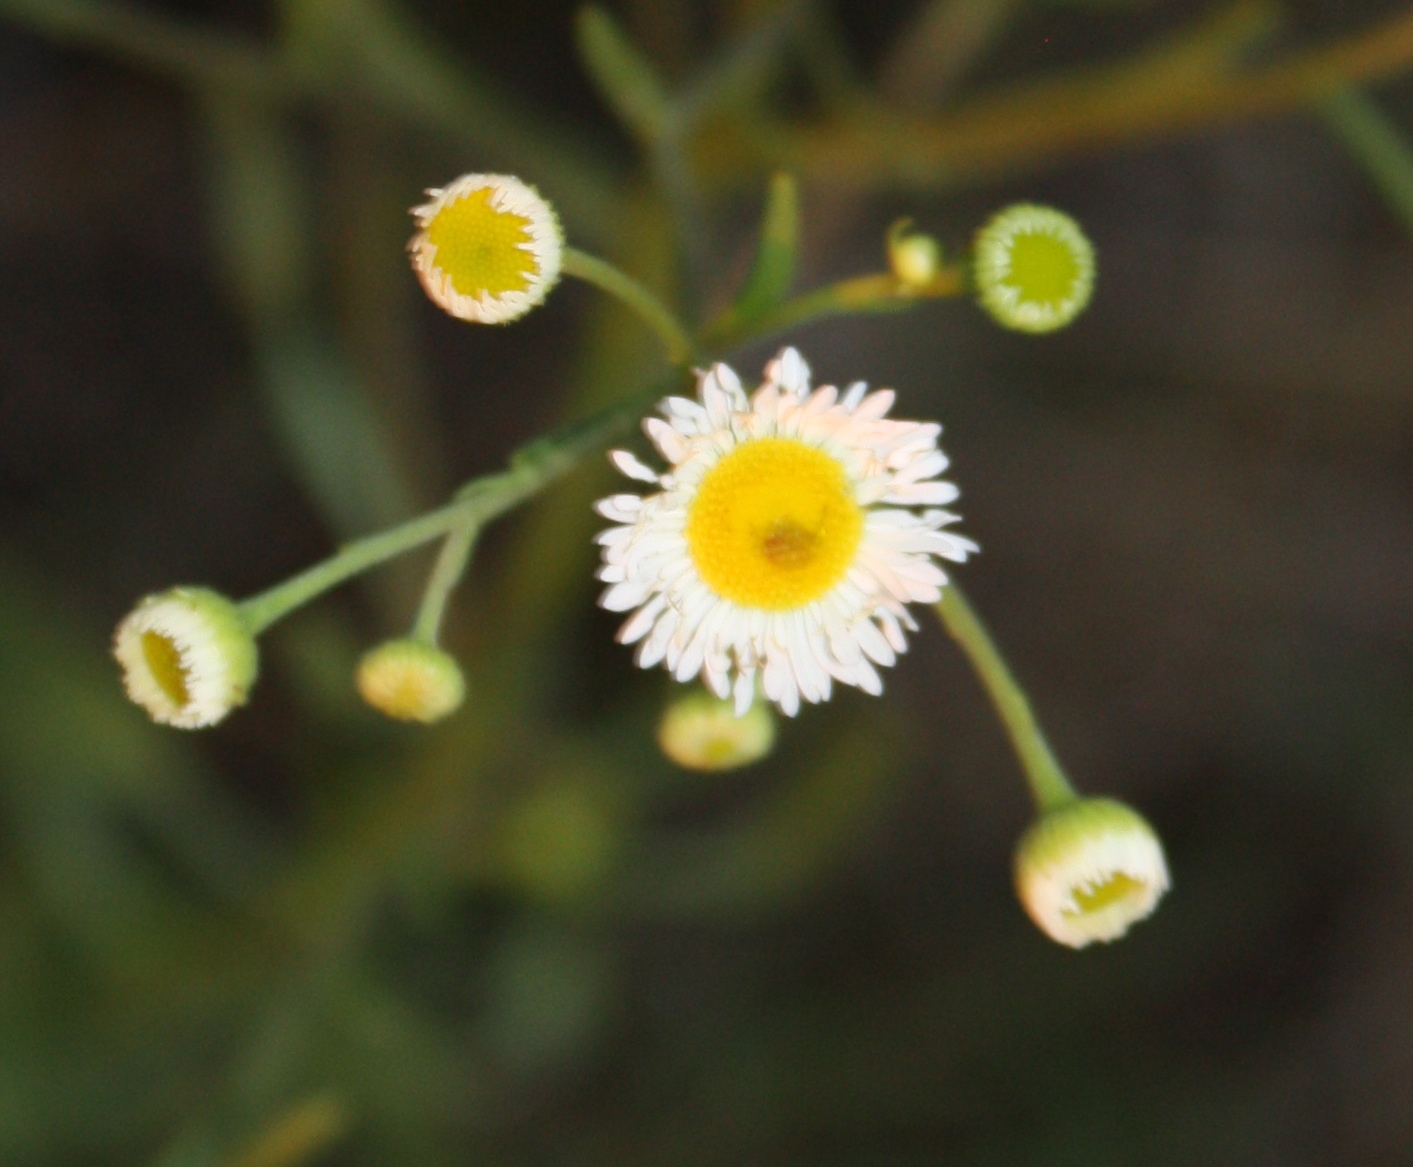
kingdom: Plantae
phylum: Tracheophyta
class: Magnoliopsida
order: Asterales
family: Asteraceae
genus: Erigeron
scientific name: Erigeron strigosus
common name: Common eastern fleabane
